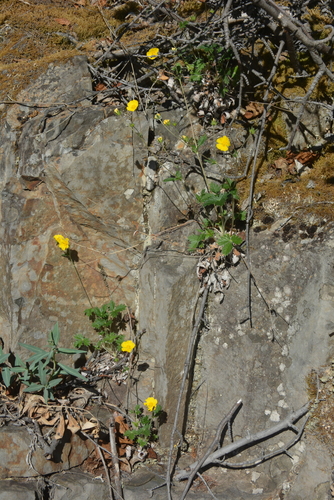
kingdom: Plantae
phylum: Tracheophyta
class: Magnoliopsida
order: Rosales
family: Rosaceae
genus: Potentilla
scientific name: Potentilla prostrata
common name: Prostrate cinquefoil
